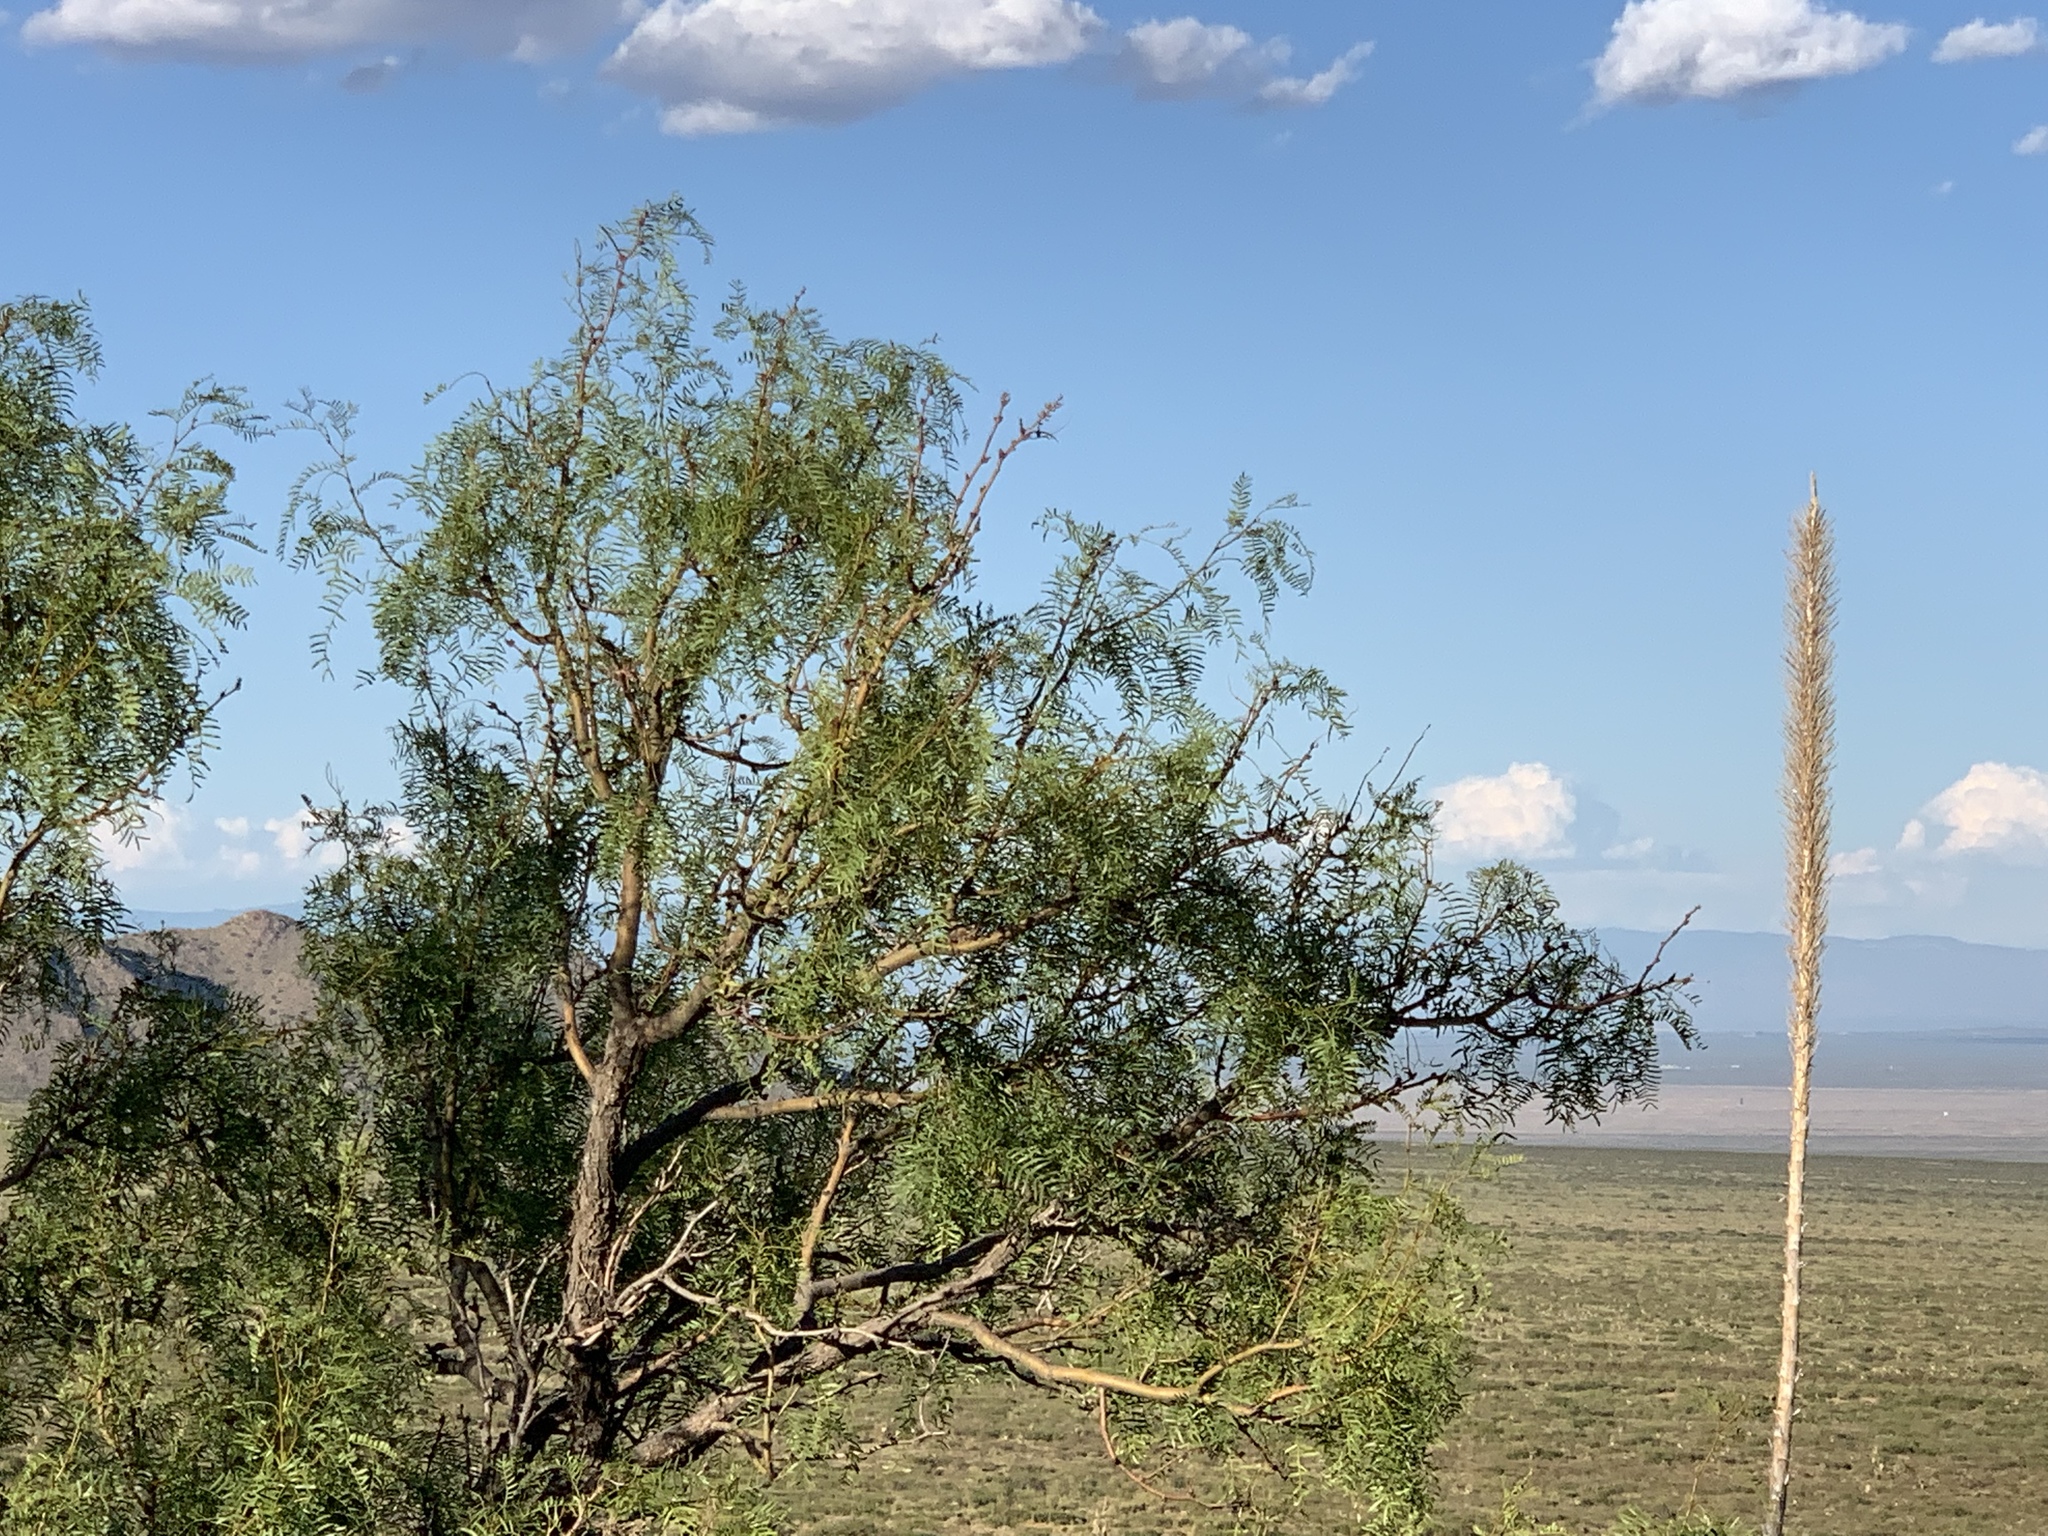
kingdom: Plantae
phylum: Tracheophyta
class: Magnoliopsida
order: Fabales
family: Fabaceae
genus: Prosopis
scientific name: Prosopis glandulosa
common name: Honey mesquite
